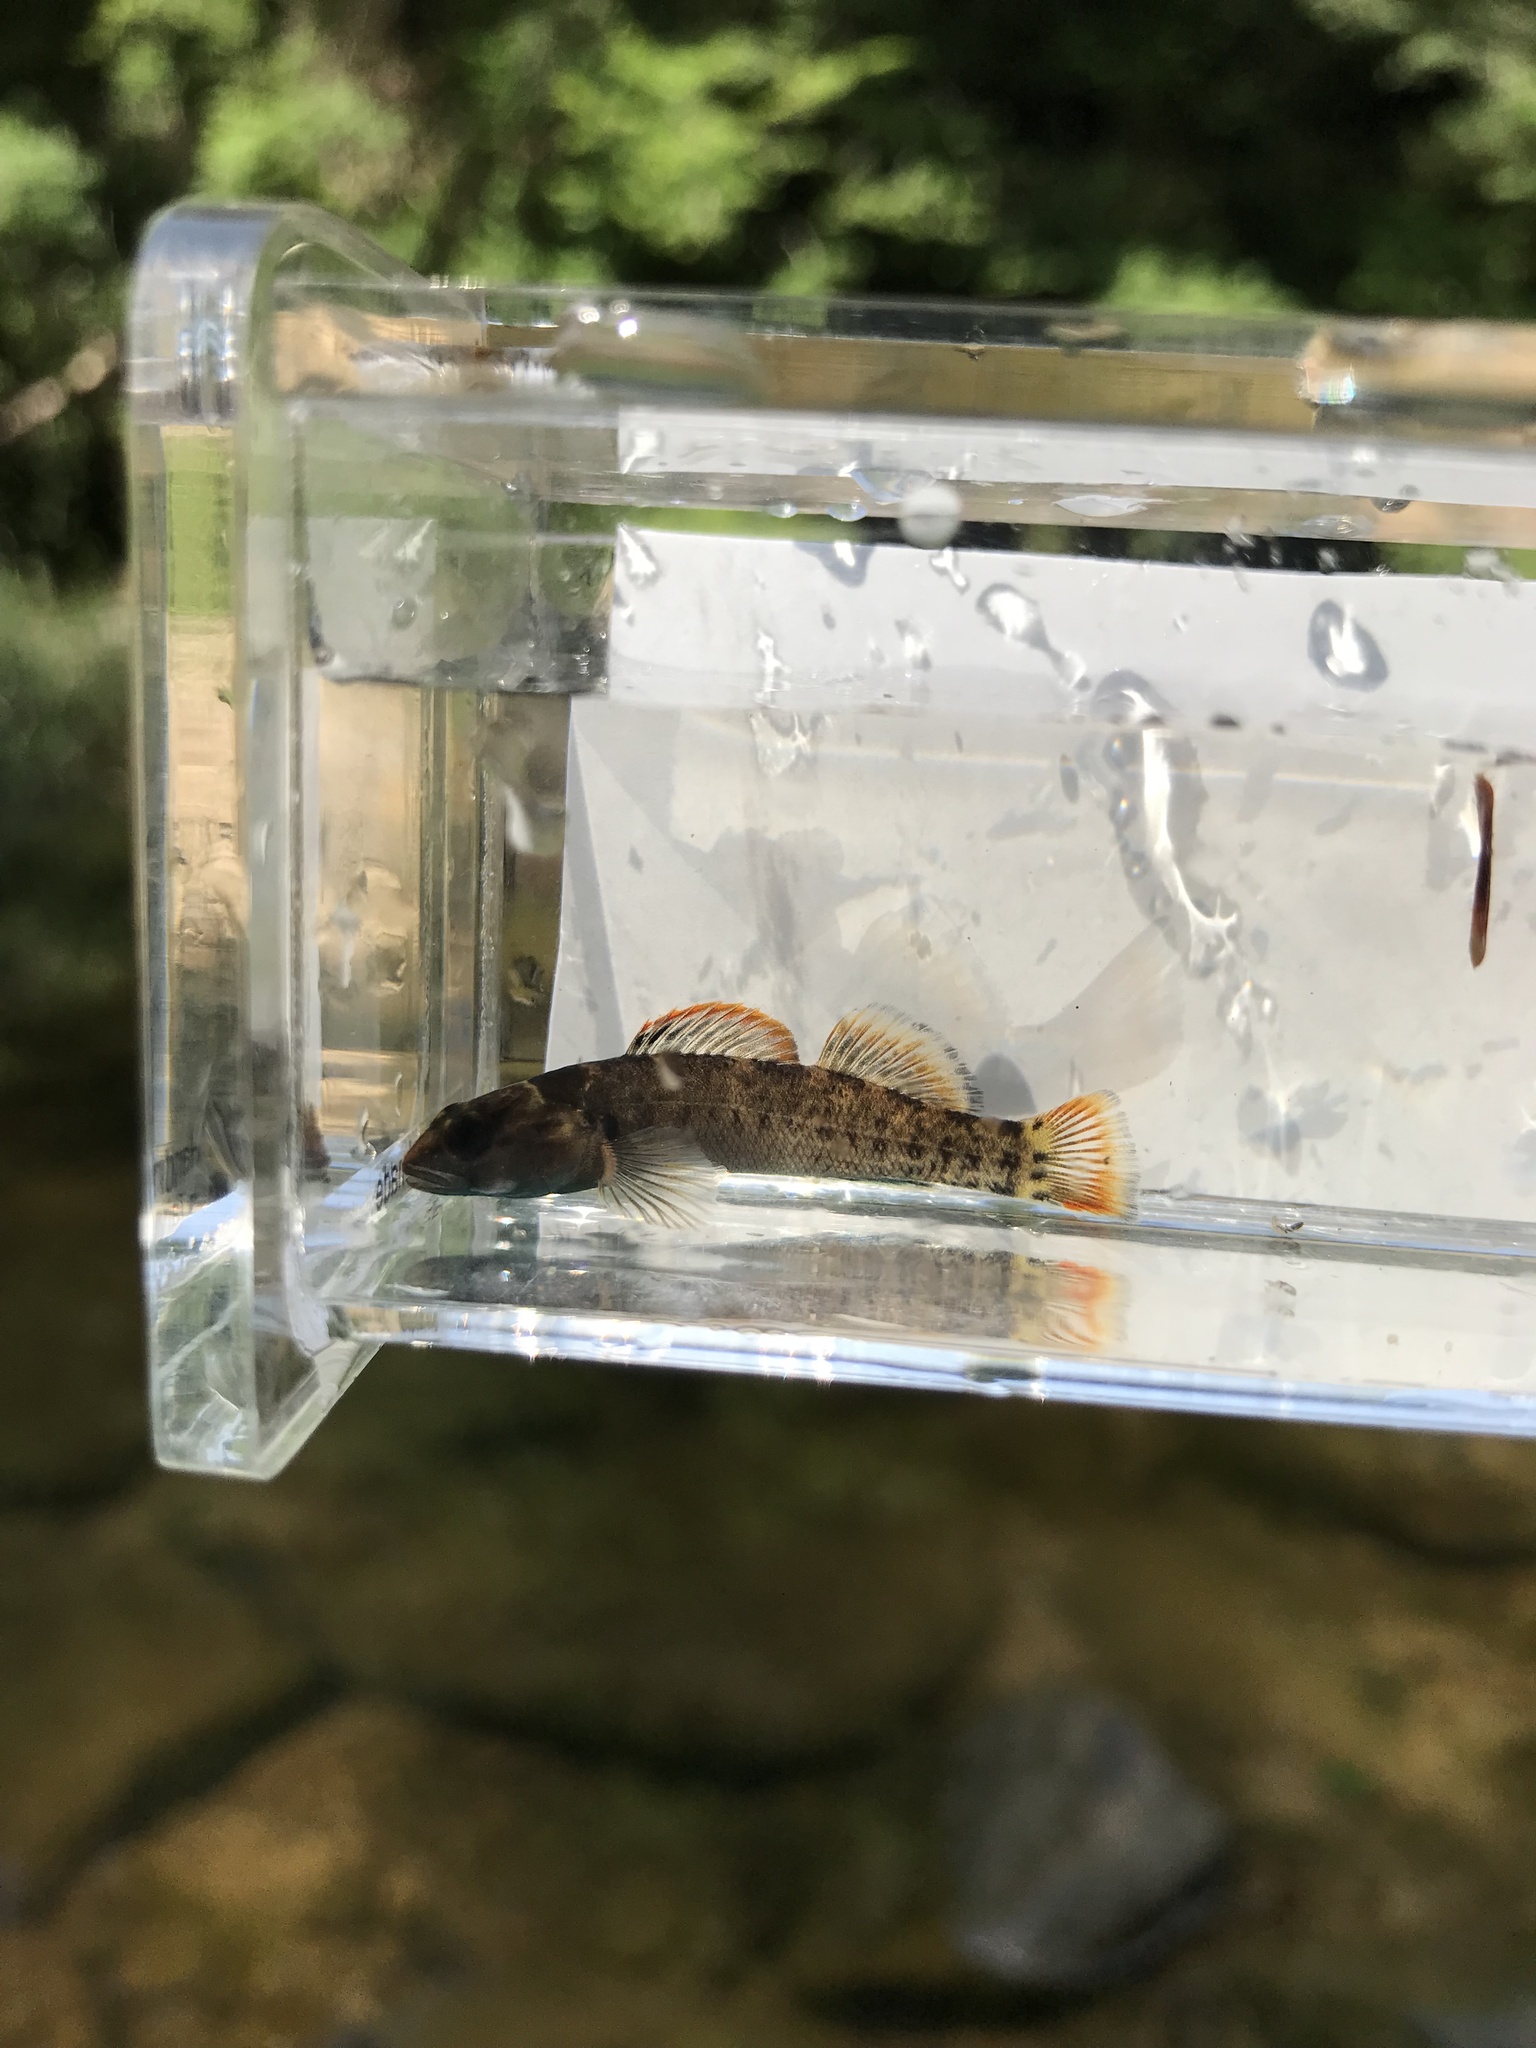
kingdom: Animalia
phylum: Chordata
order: Perciformes
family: Percidae
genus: Etheostoma
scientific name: Etheostoma douglasi
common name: Tuskaloosa darter
